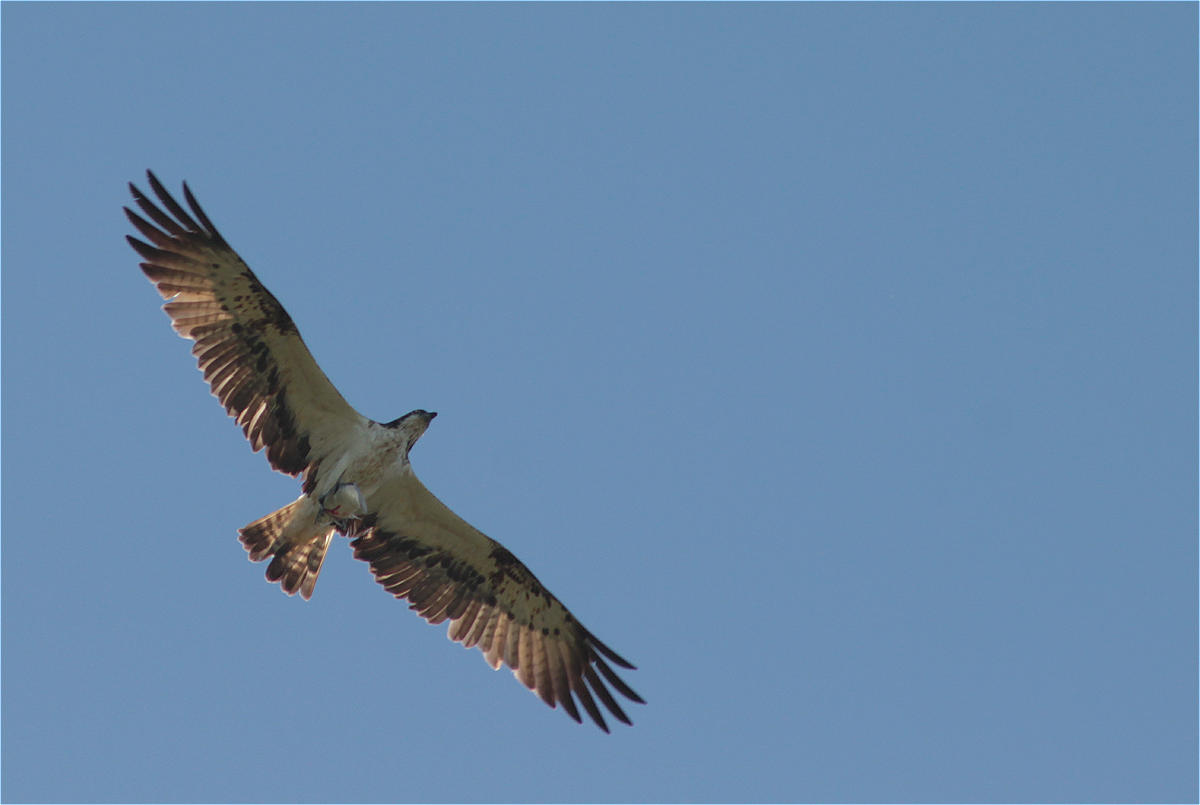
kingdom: Animalia
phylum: Chordata
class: Aves
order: Accipitriformes
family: Pandionidae
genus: Pandion
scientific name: Pandion haliaetus
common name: Osprey
